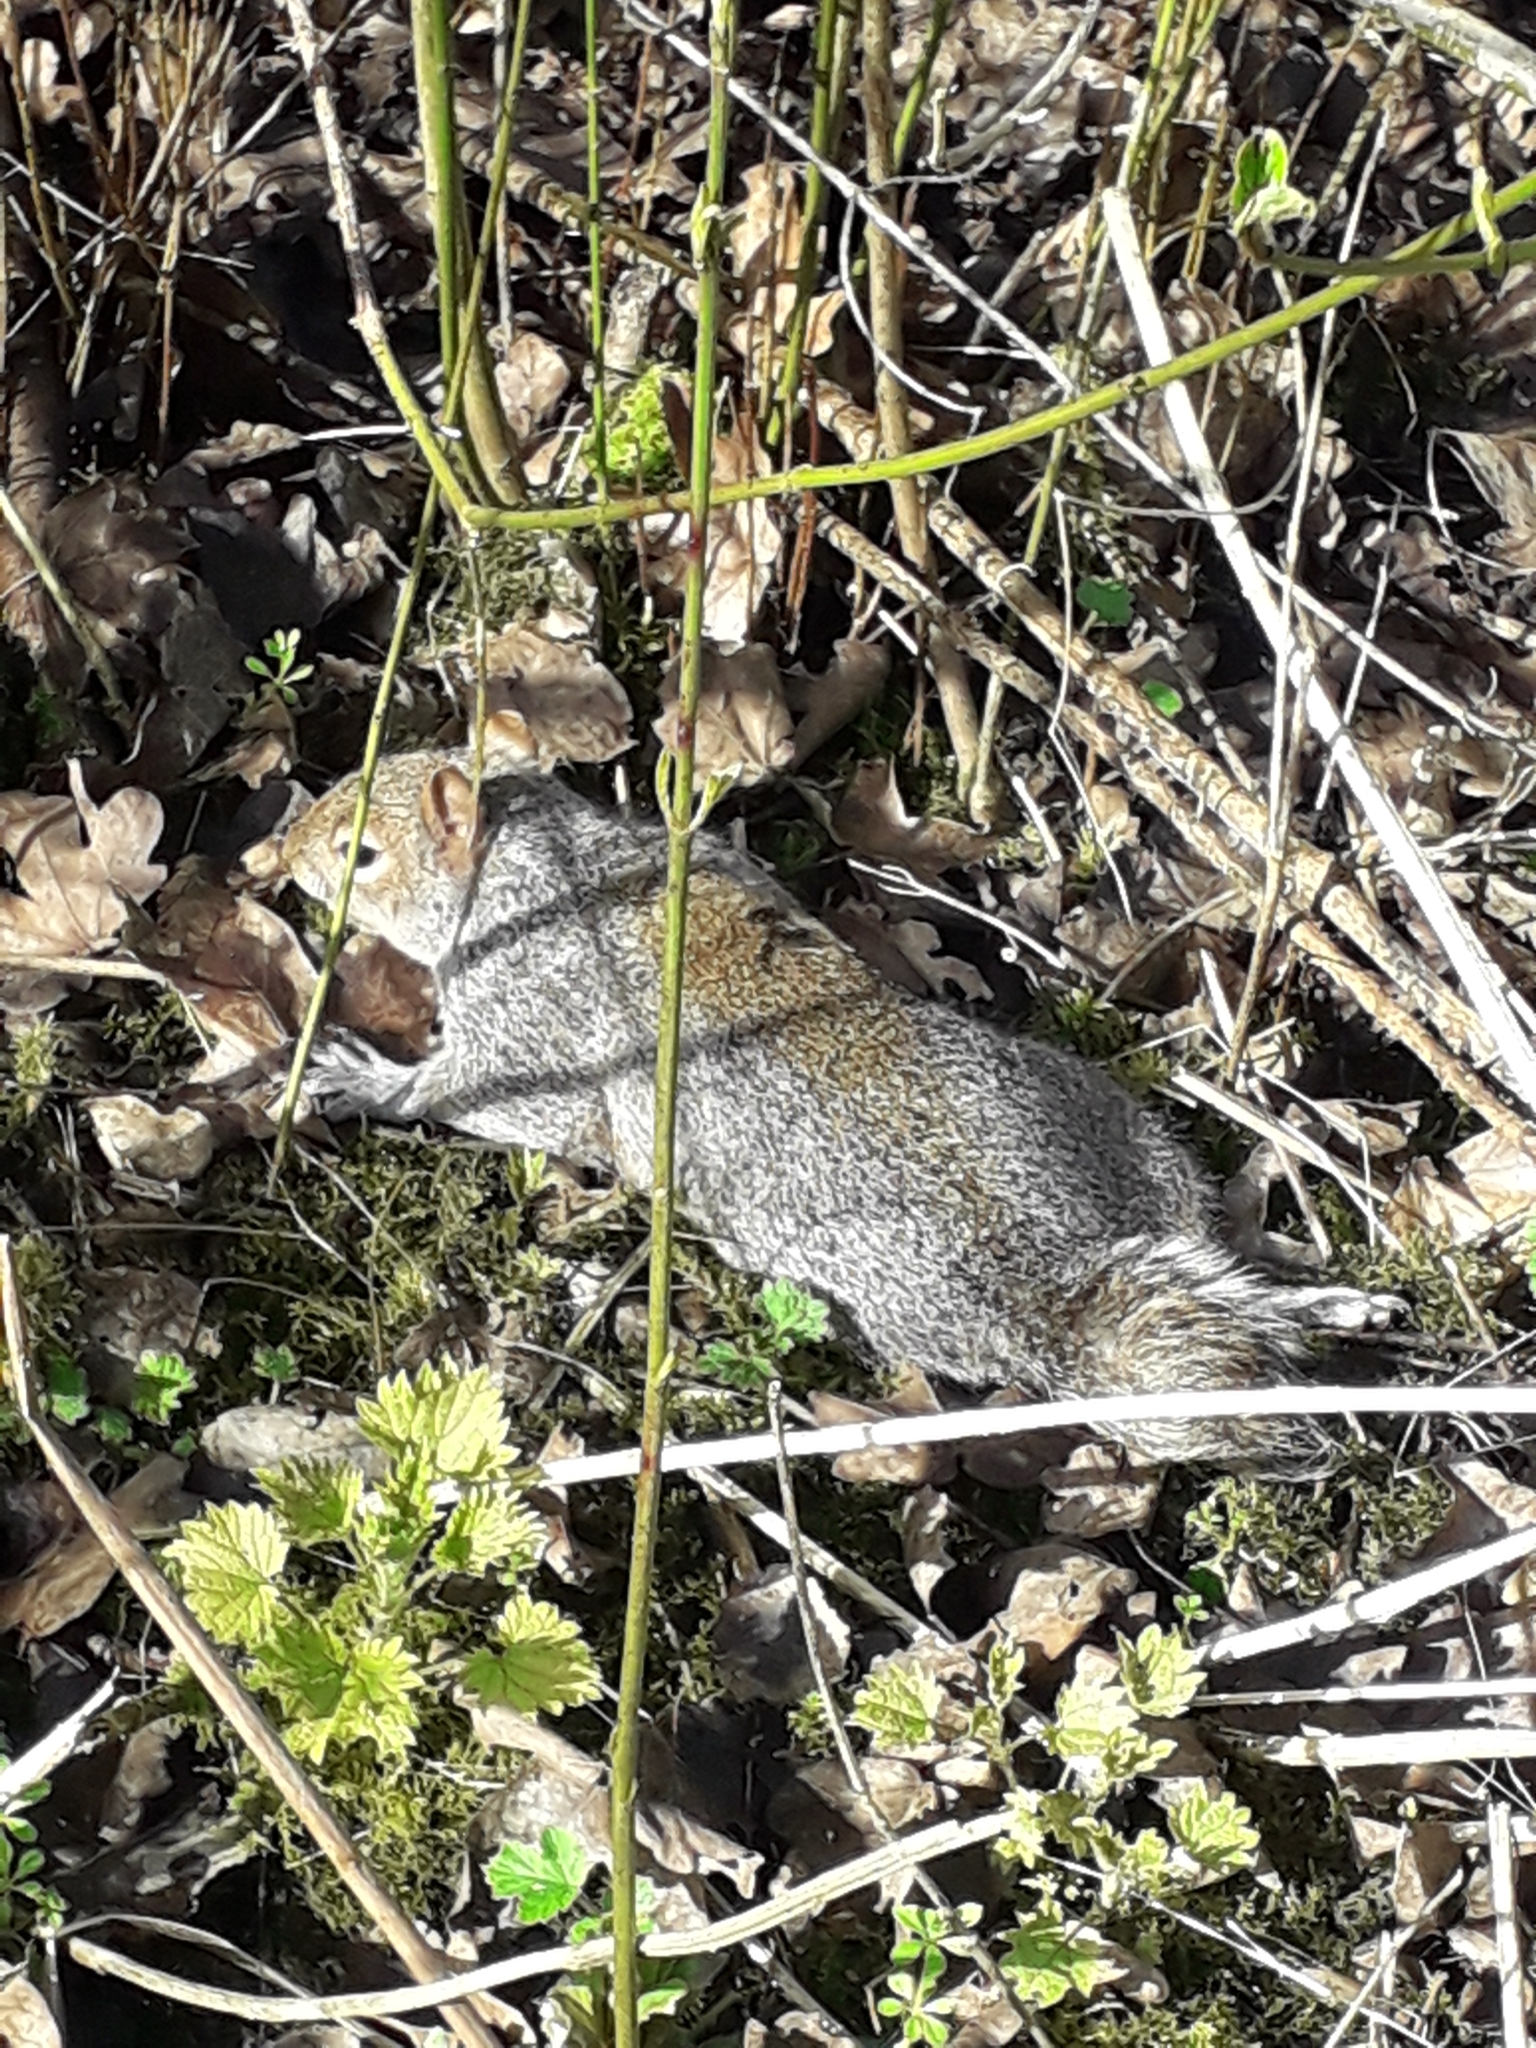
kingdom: Animalia
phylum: Chordata
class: Mammalia
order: Rodentia
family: Sciuridae
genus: Sciurus
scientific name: Sciurus carolinensis
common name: Eastern gray squirrel
